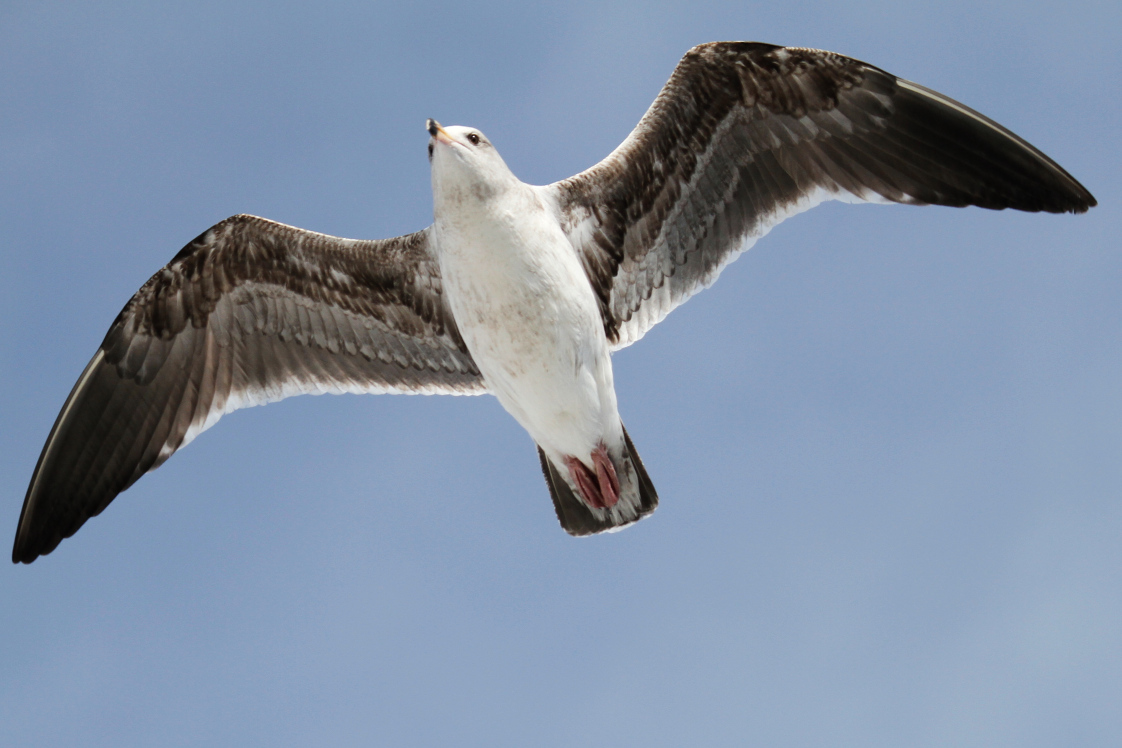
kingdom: Animalia
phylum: Chordata
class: Aves
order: Charadriiformes
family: Laridae
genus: Larus
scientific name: Larus occidentalis
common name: Western gull
